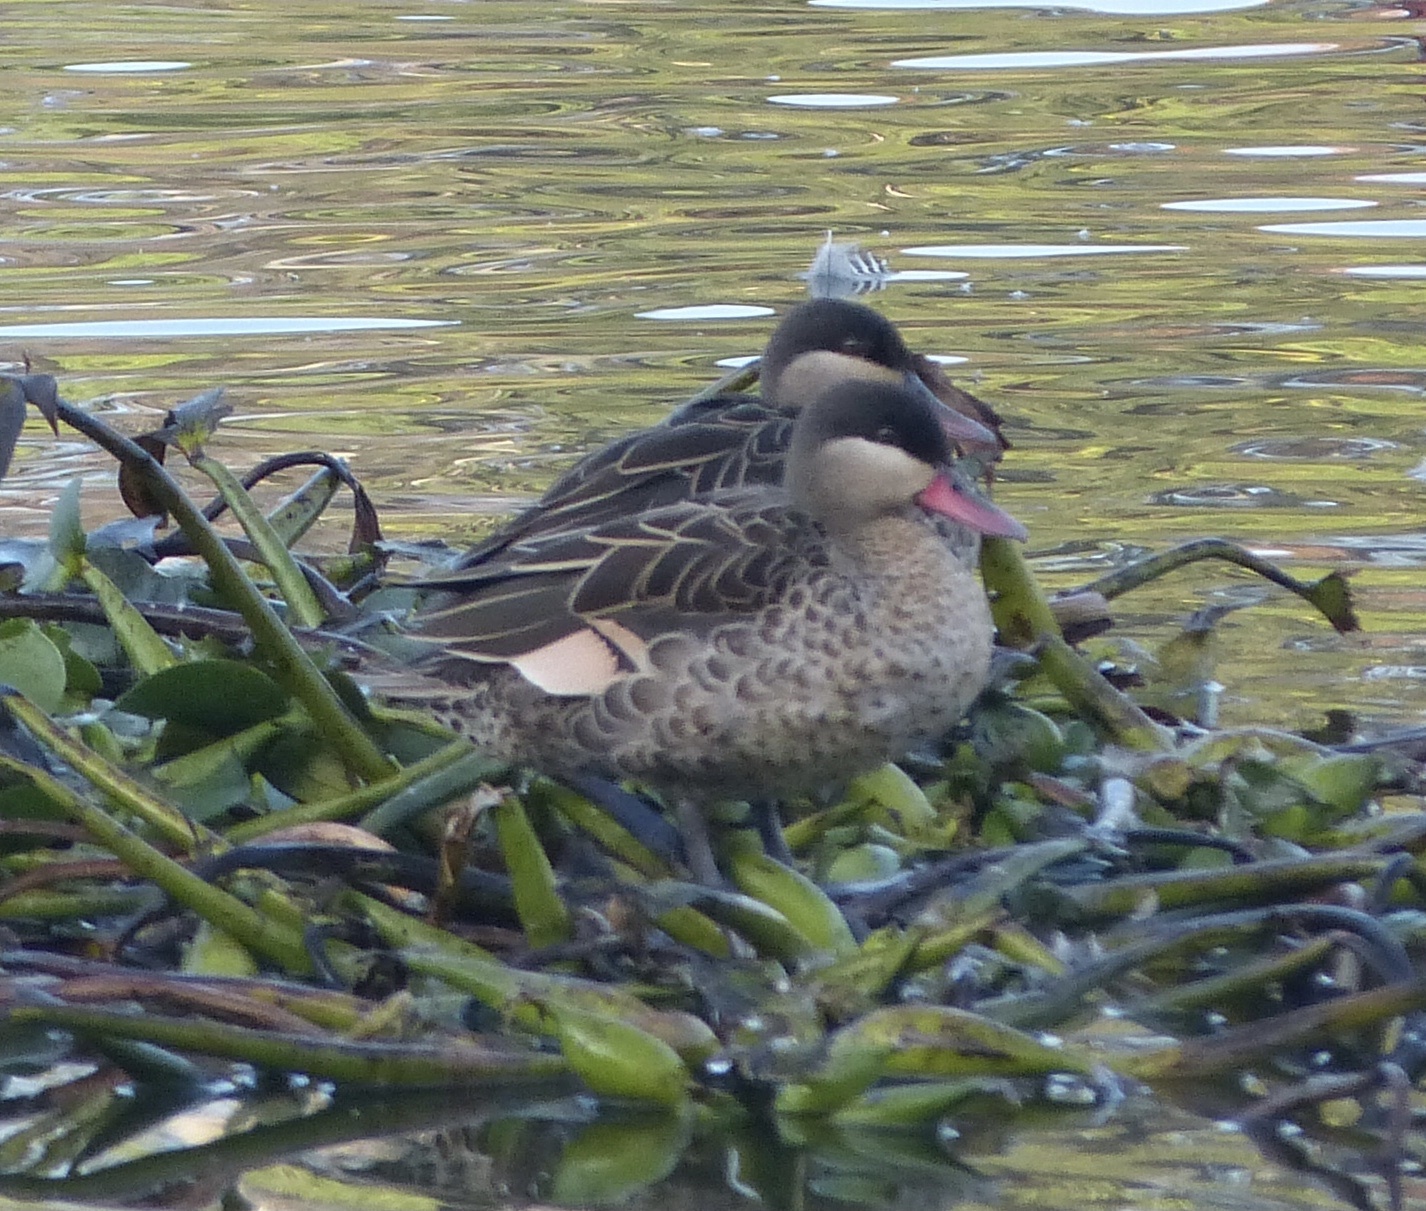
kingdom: Animalia
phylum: Chordata
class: Aves
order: Anseriformes
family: Anatidae
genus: Anas
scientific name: Anas erythrorhyncha
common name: Red-billed teal
